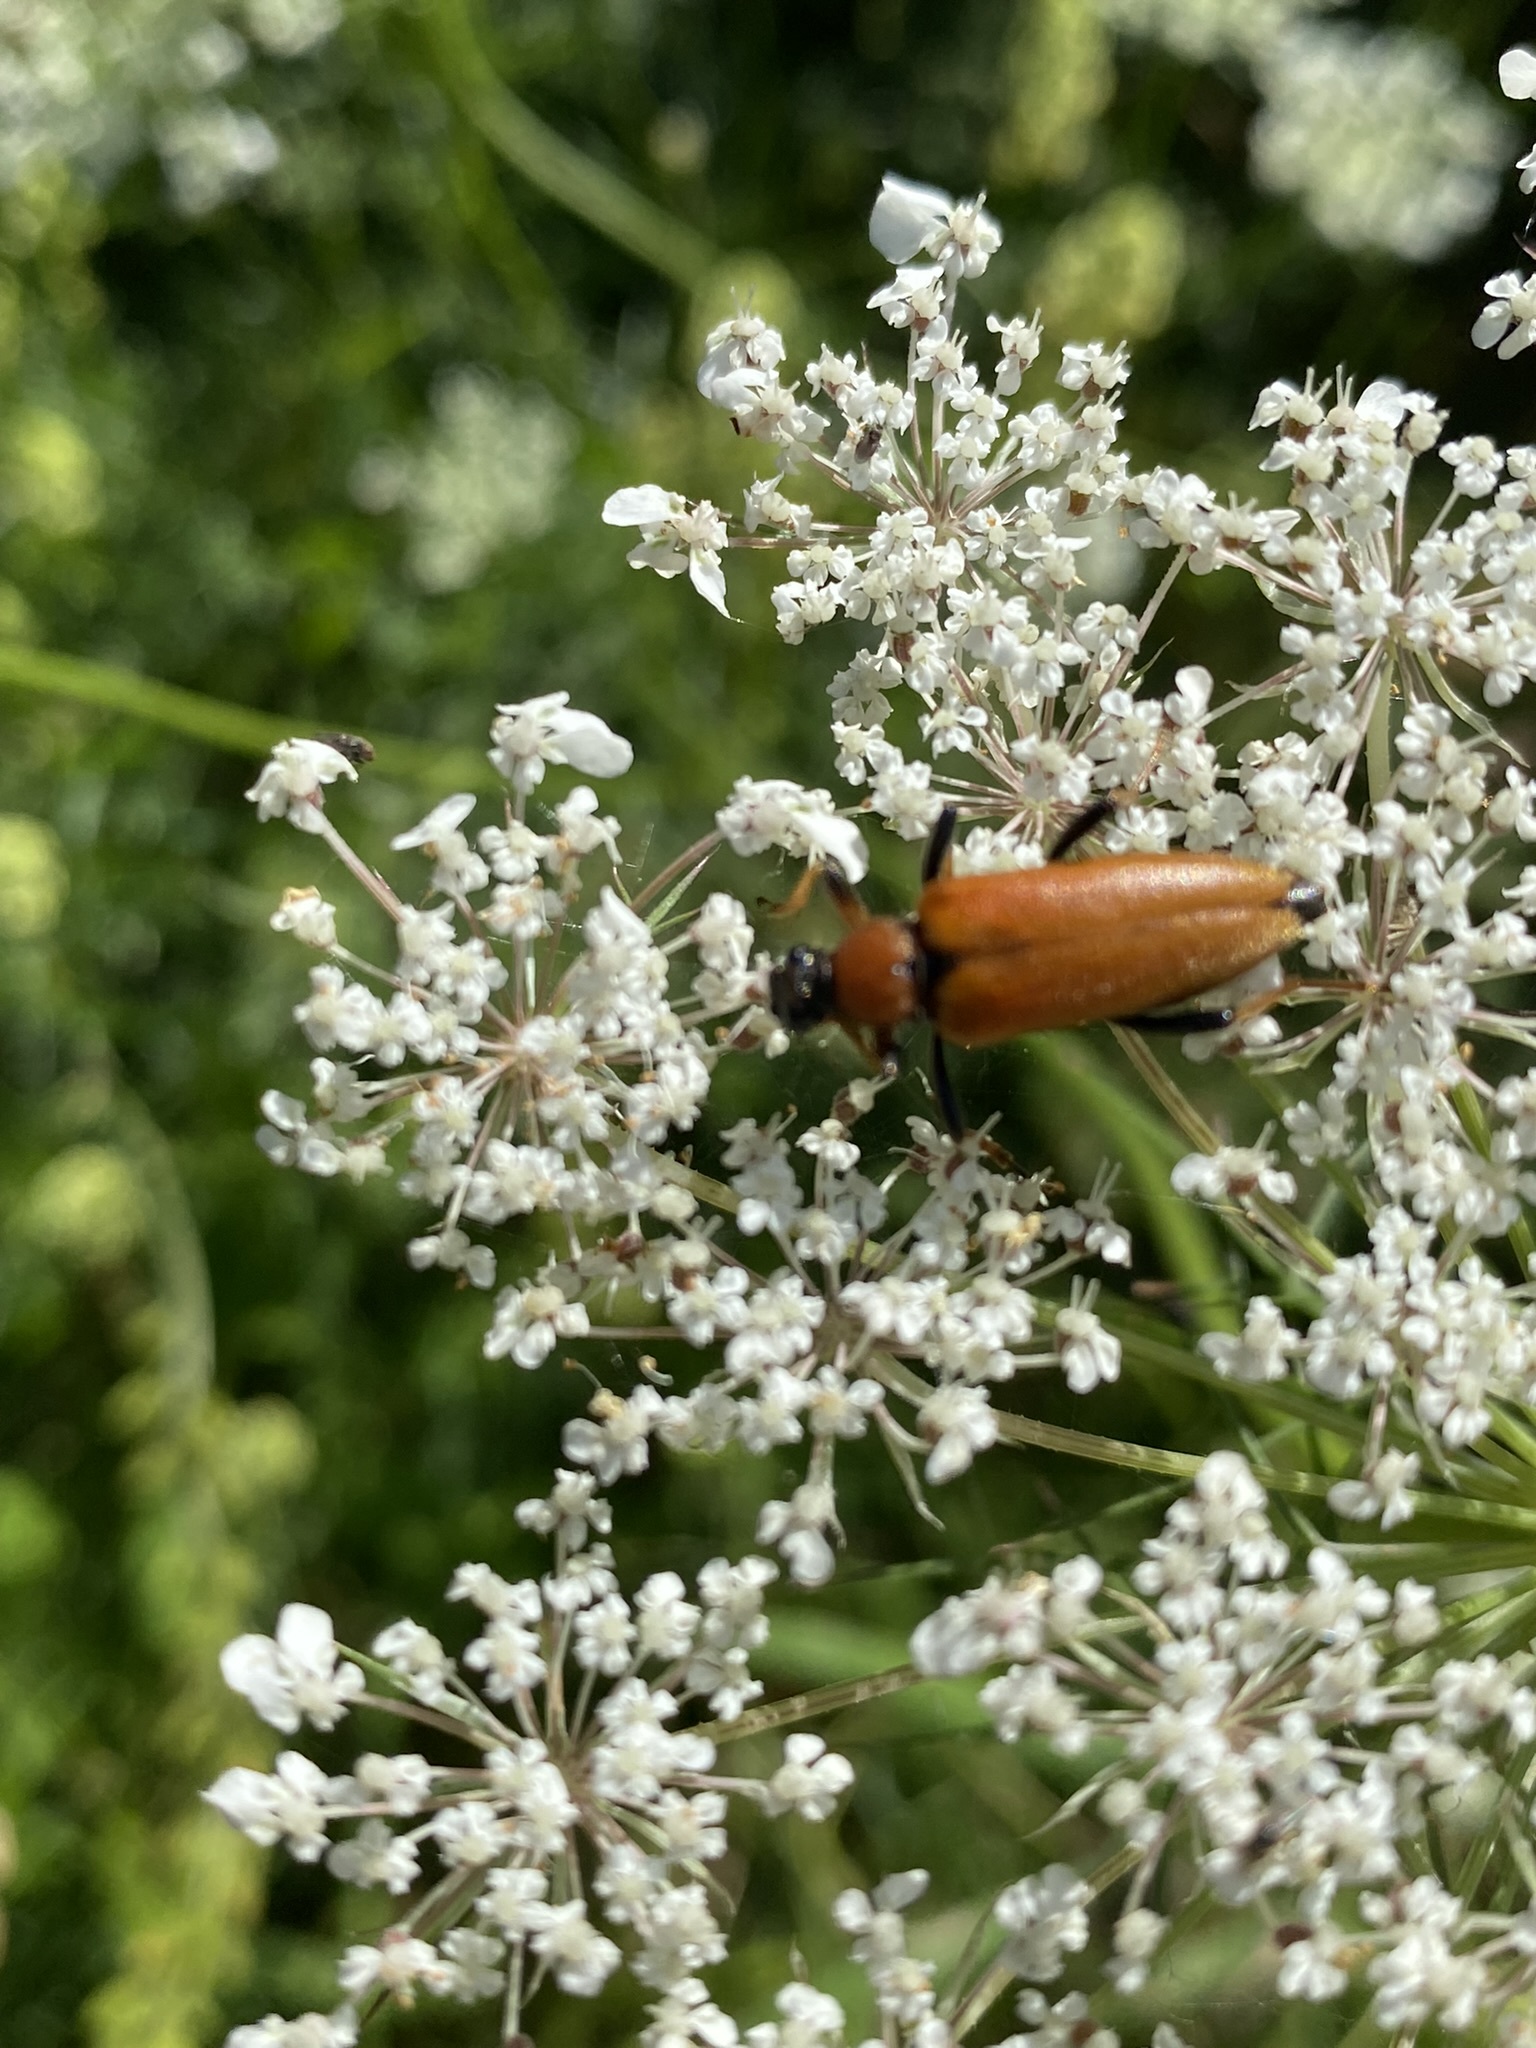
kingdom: Animalia
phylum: Arthropoda
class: Insecta
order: Coleoptera
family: Cerambycidae
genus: Stictoleptura
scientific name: Stictoleptura rubra
